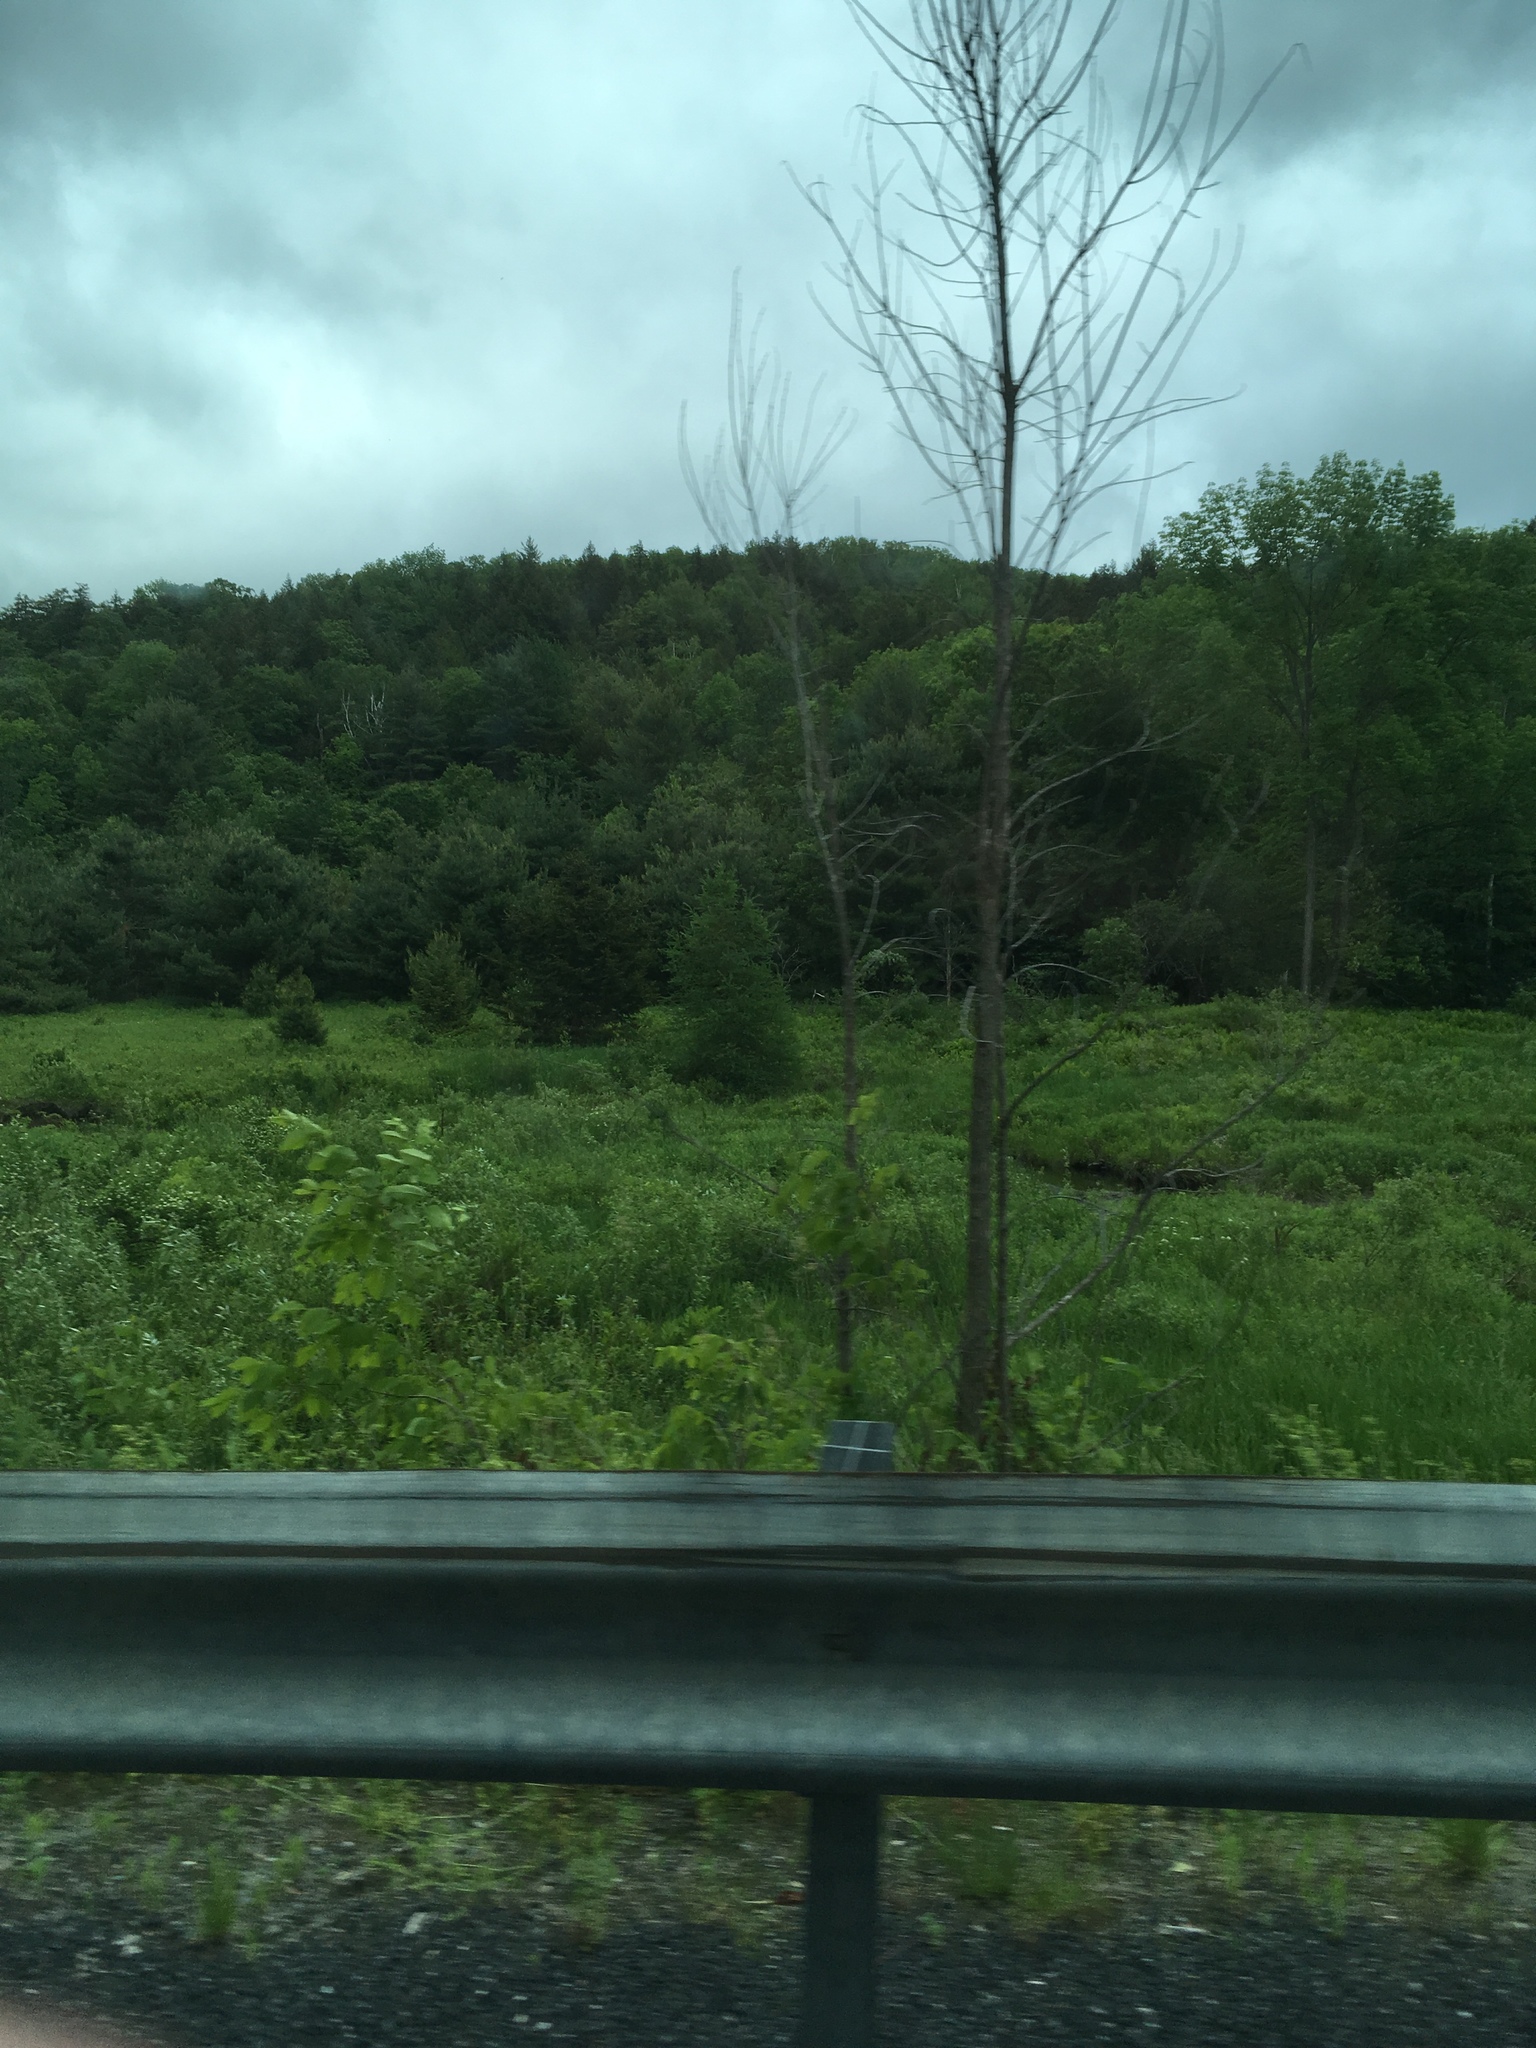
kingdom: Plantae
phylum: Tracheophyta
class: Pinopsida
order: Pinales
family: Pinaceae
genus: Larix
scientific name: Larix laricina
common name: American larch
